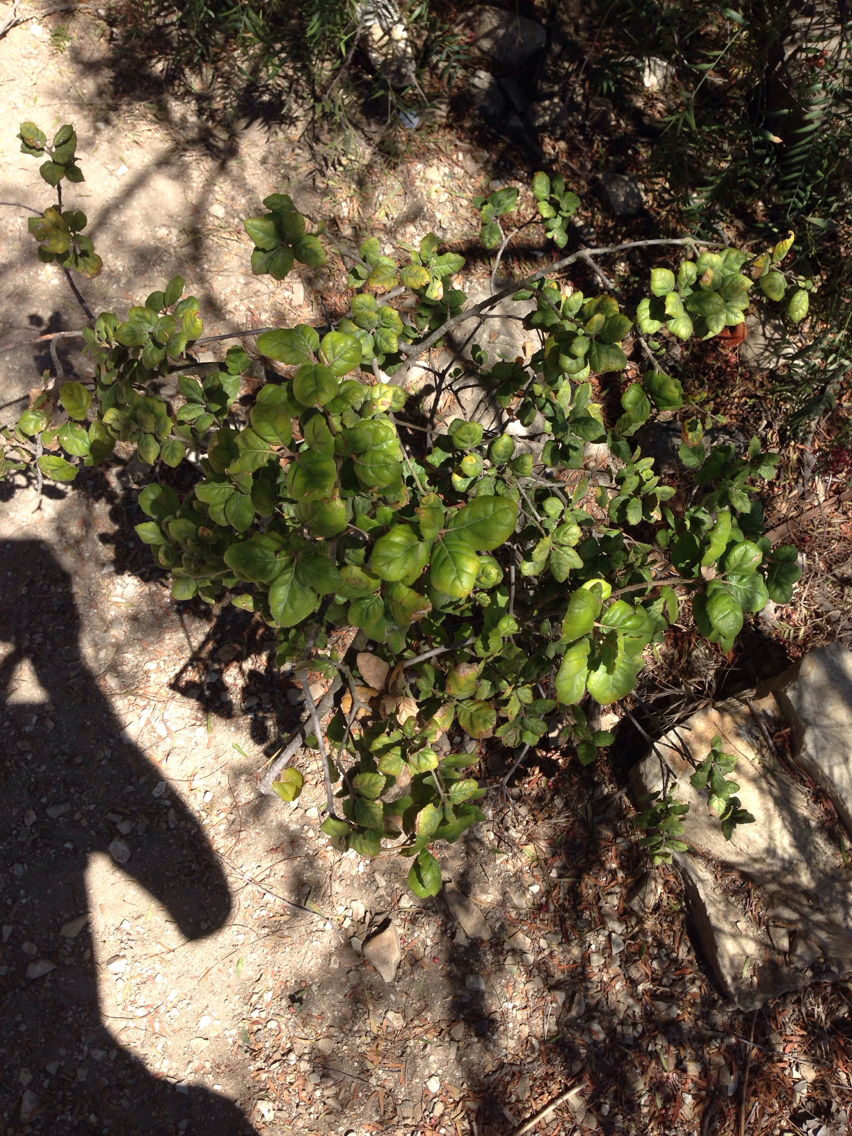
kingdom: Plantae
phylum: Tracheophyta
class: Magnoliopsida
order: Fagales
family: Fagaceae
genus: Quercus
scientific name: Quercus agrifolia
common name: California live oak
